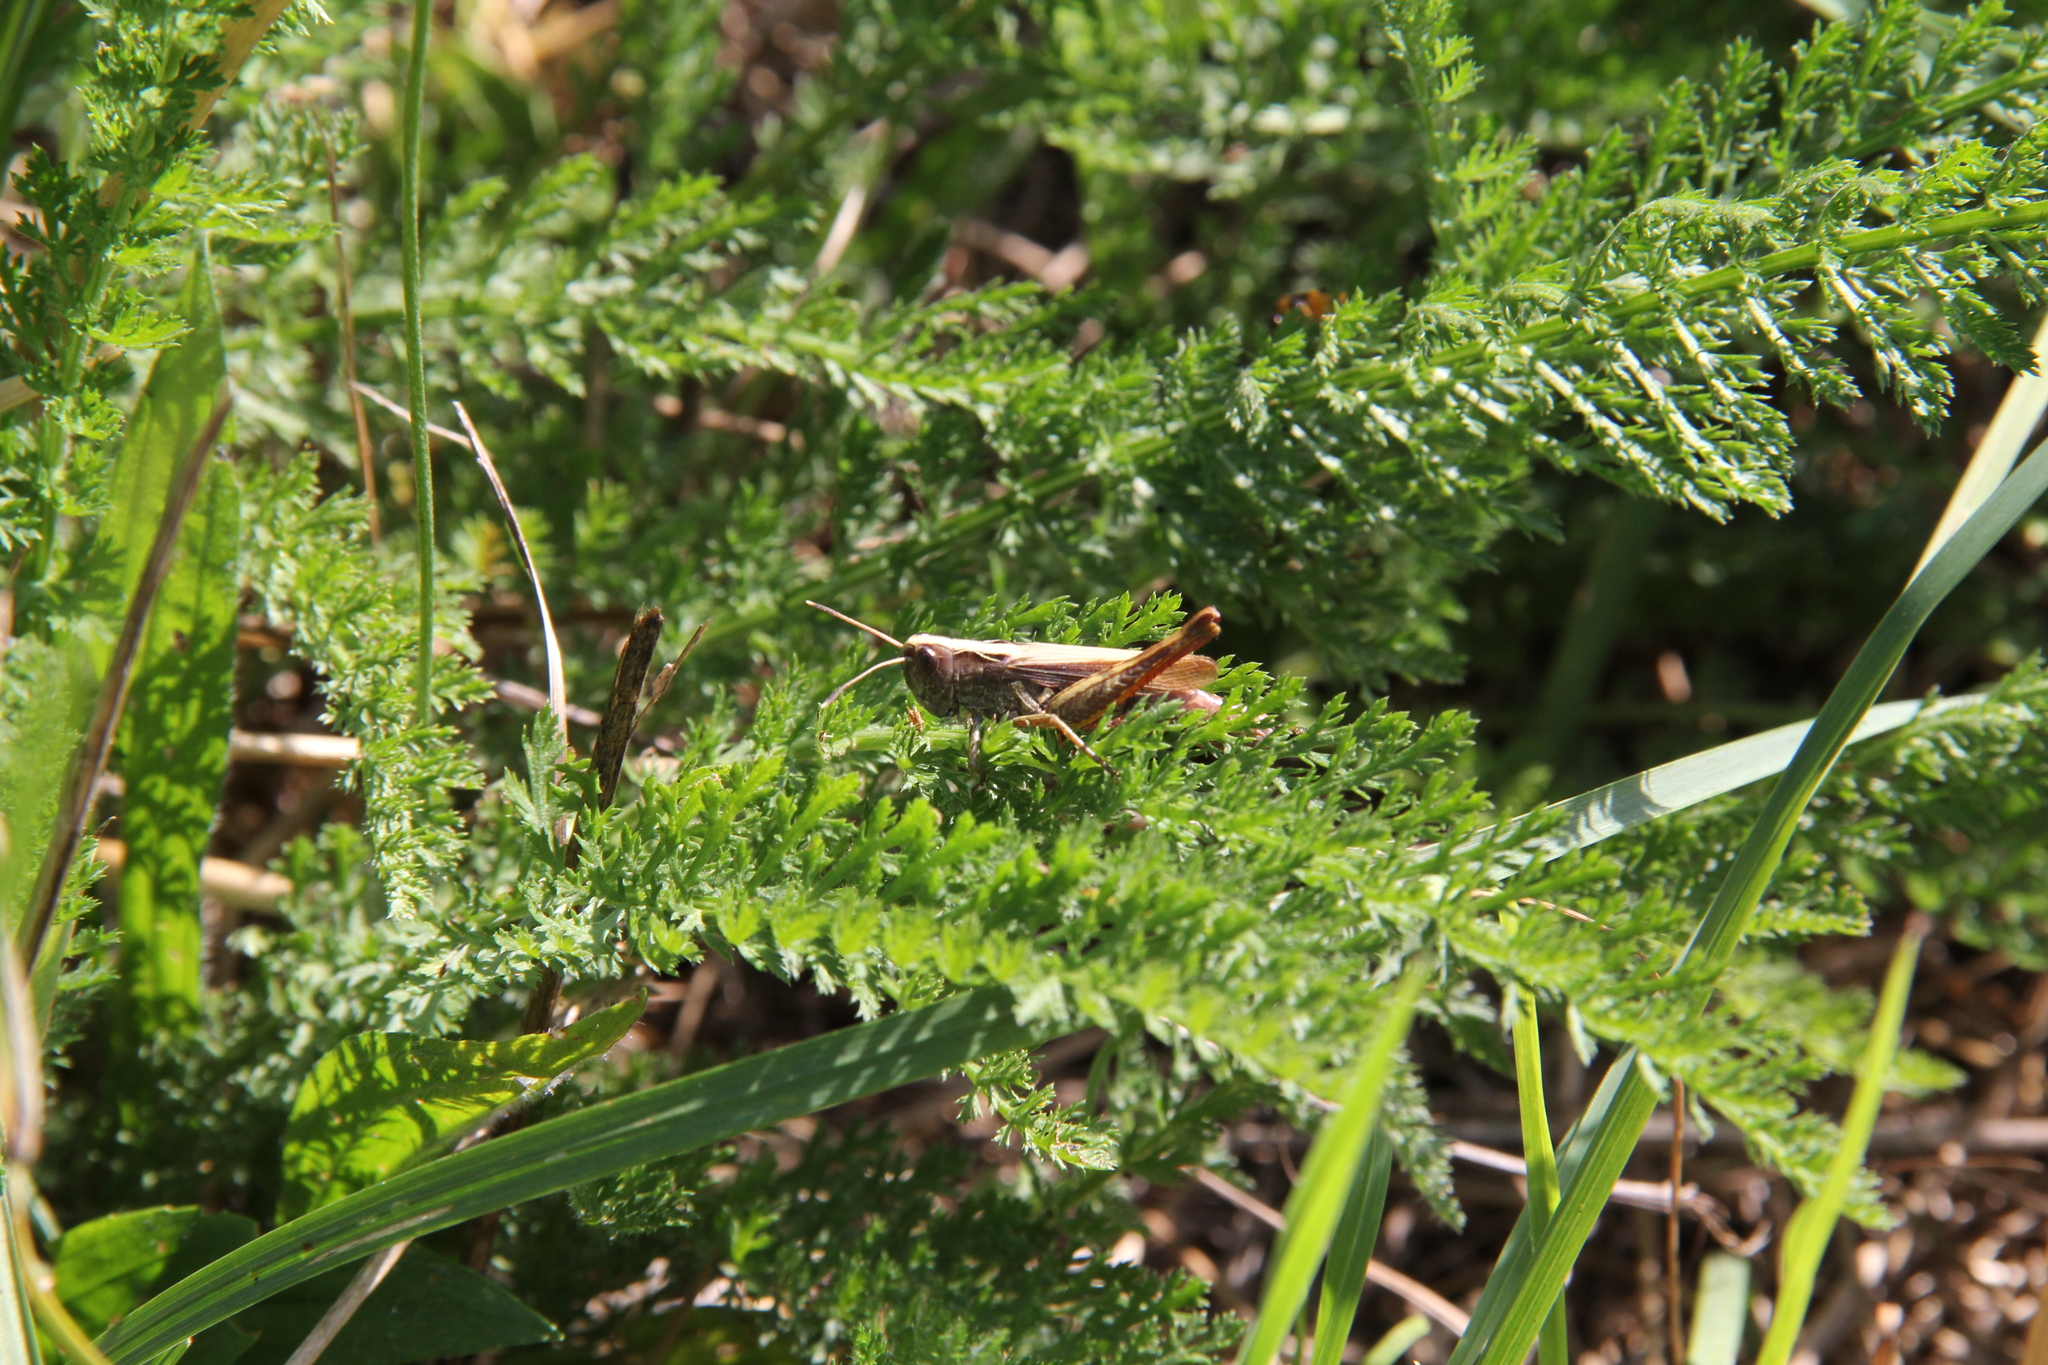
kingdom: Animalia
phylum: Arthropoda
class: Insecta
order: Orthoptera
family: Acrididae
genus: Gomphocerippus
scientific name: Gomphocerippus rufus
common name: Rufous grasshopper
